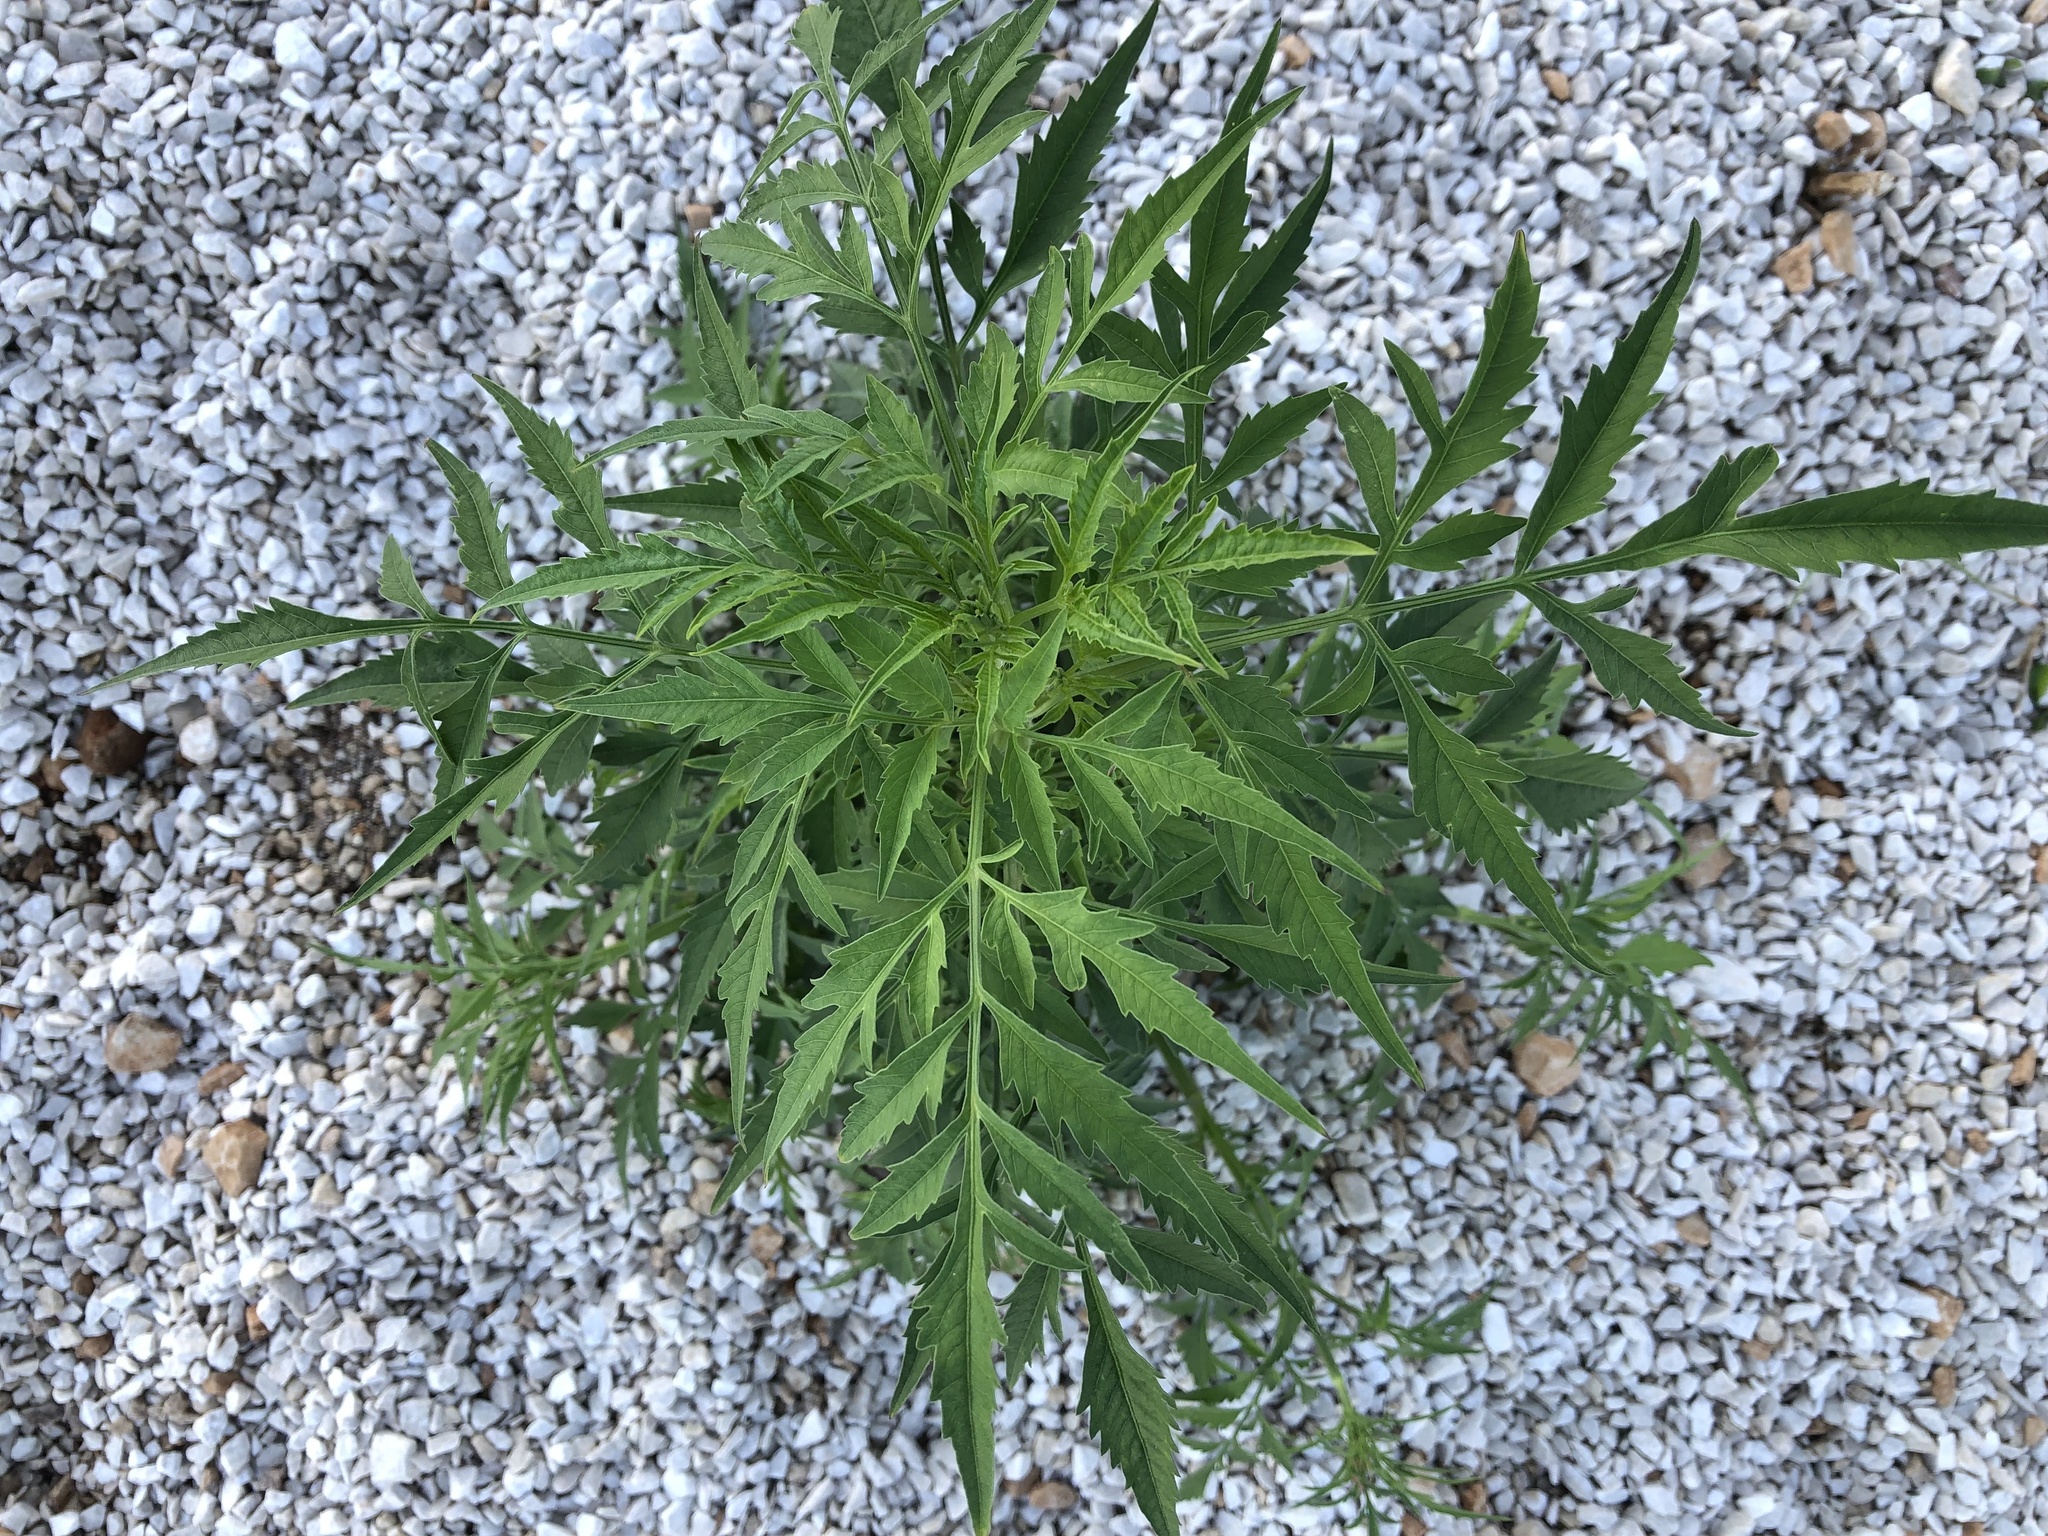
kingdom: Plantae
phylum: Tracheophyta
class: Magnoliopsida
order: Asterales
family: Asteraceae
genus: Bidens
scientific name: Bidens subalternans
